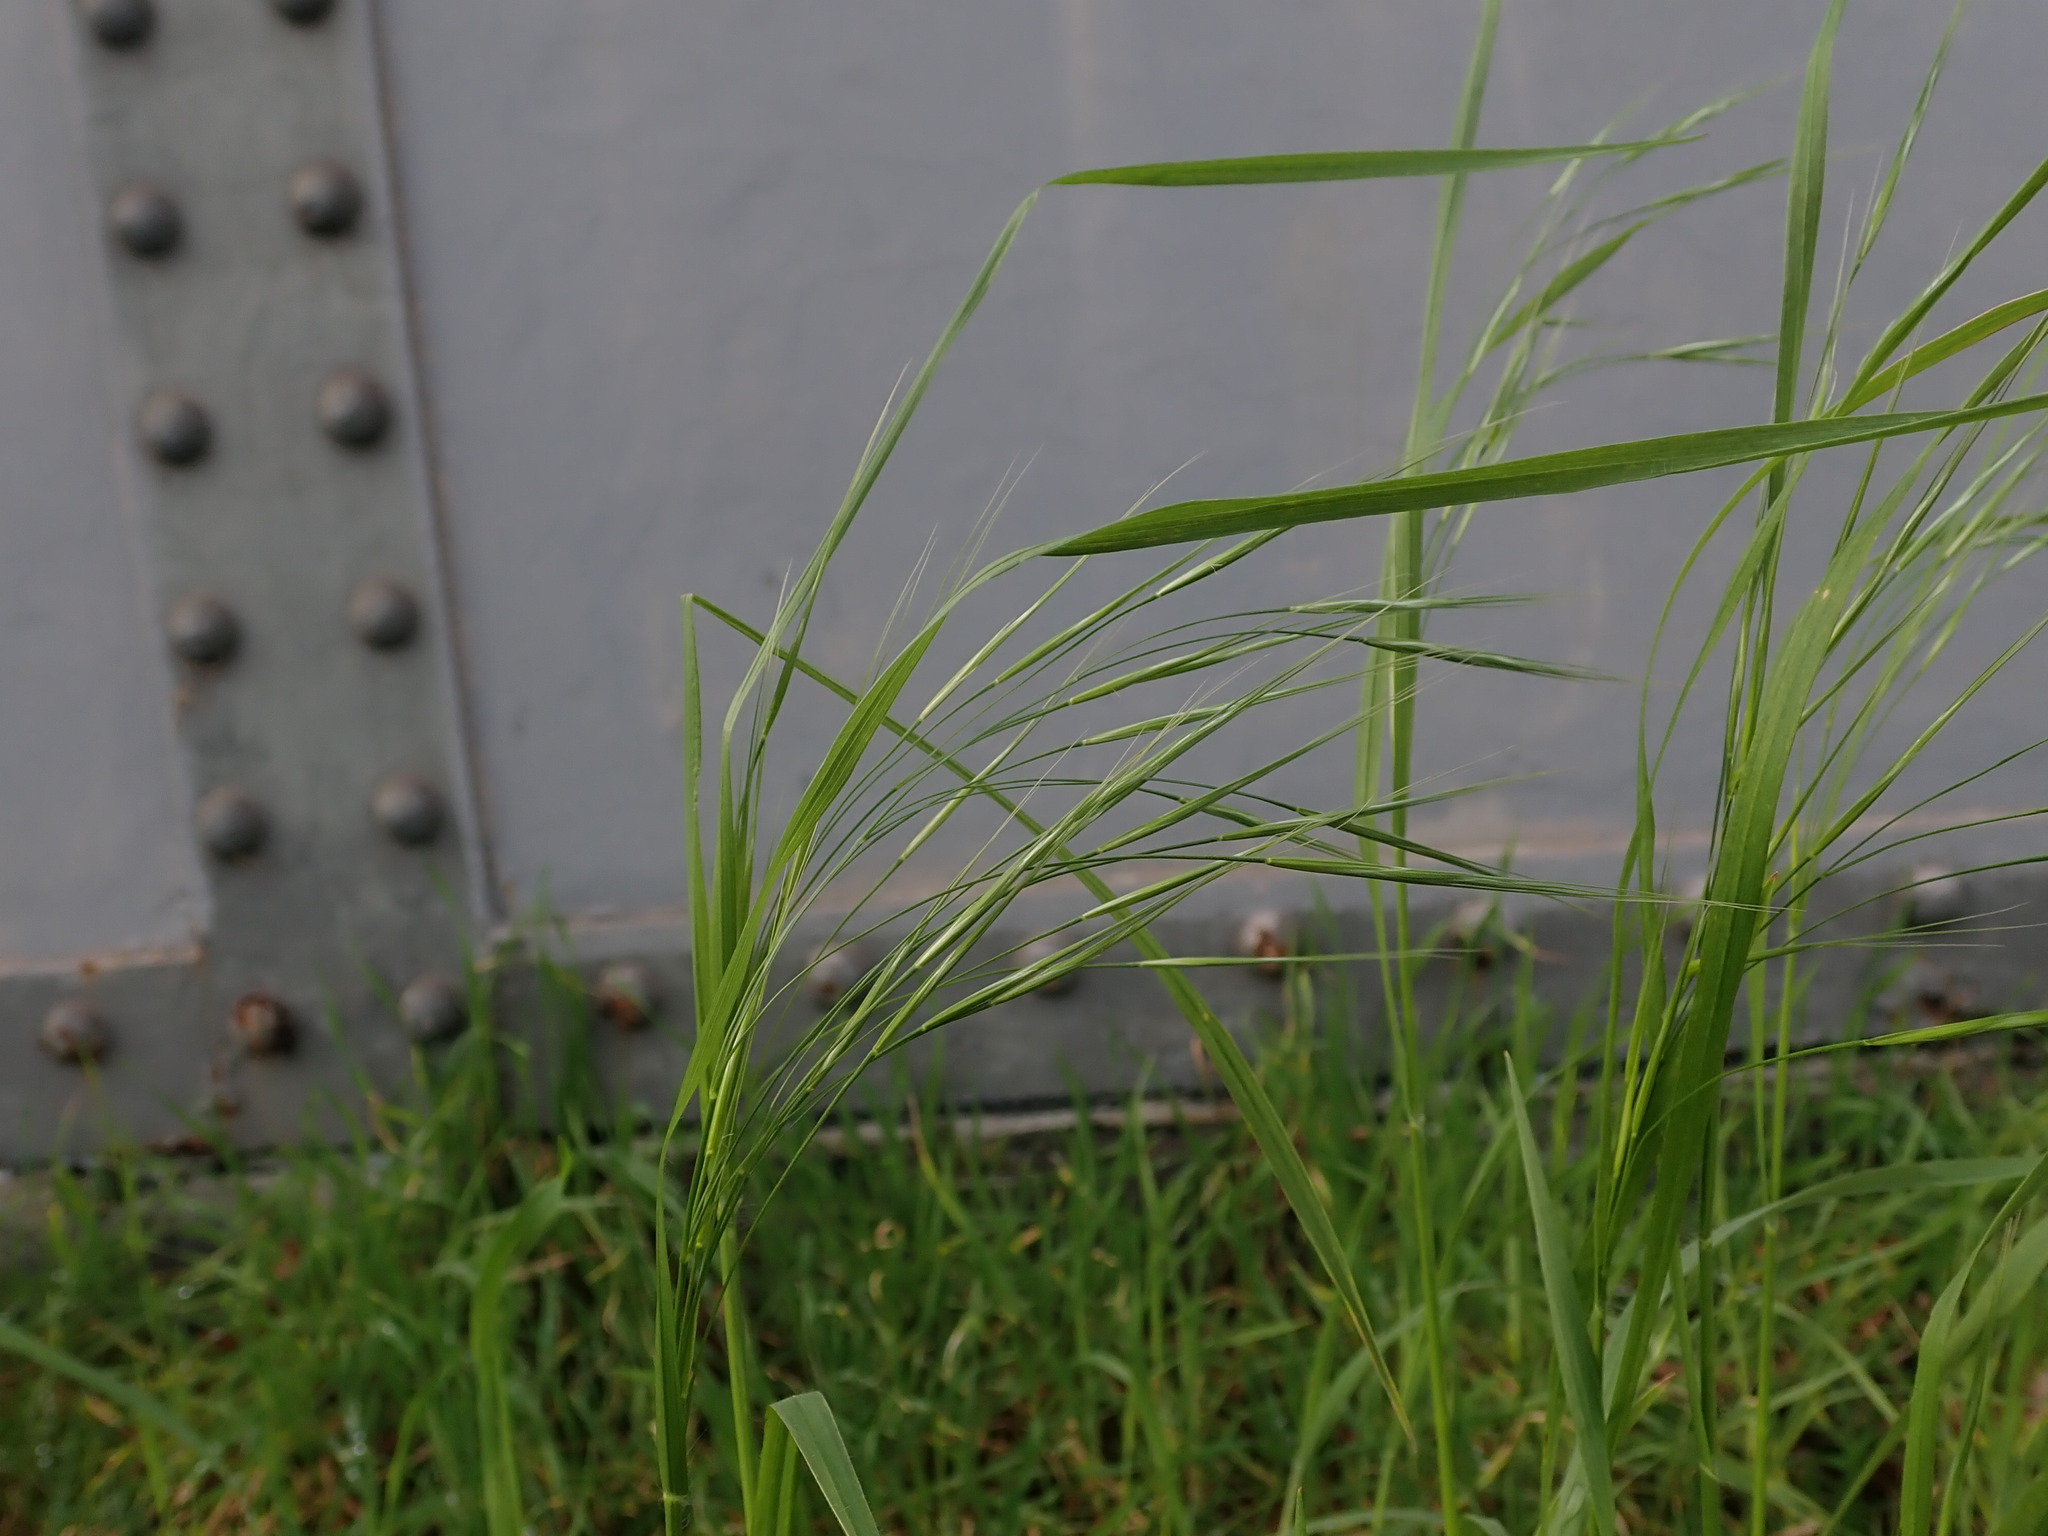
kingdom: Plantae
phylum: Tracheophyta
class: Liliopsida
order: Poales
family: Poaceae
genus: Bromus
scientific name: Bromus sterilis
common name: Poverty brome
